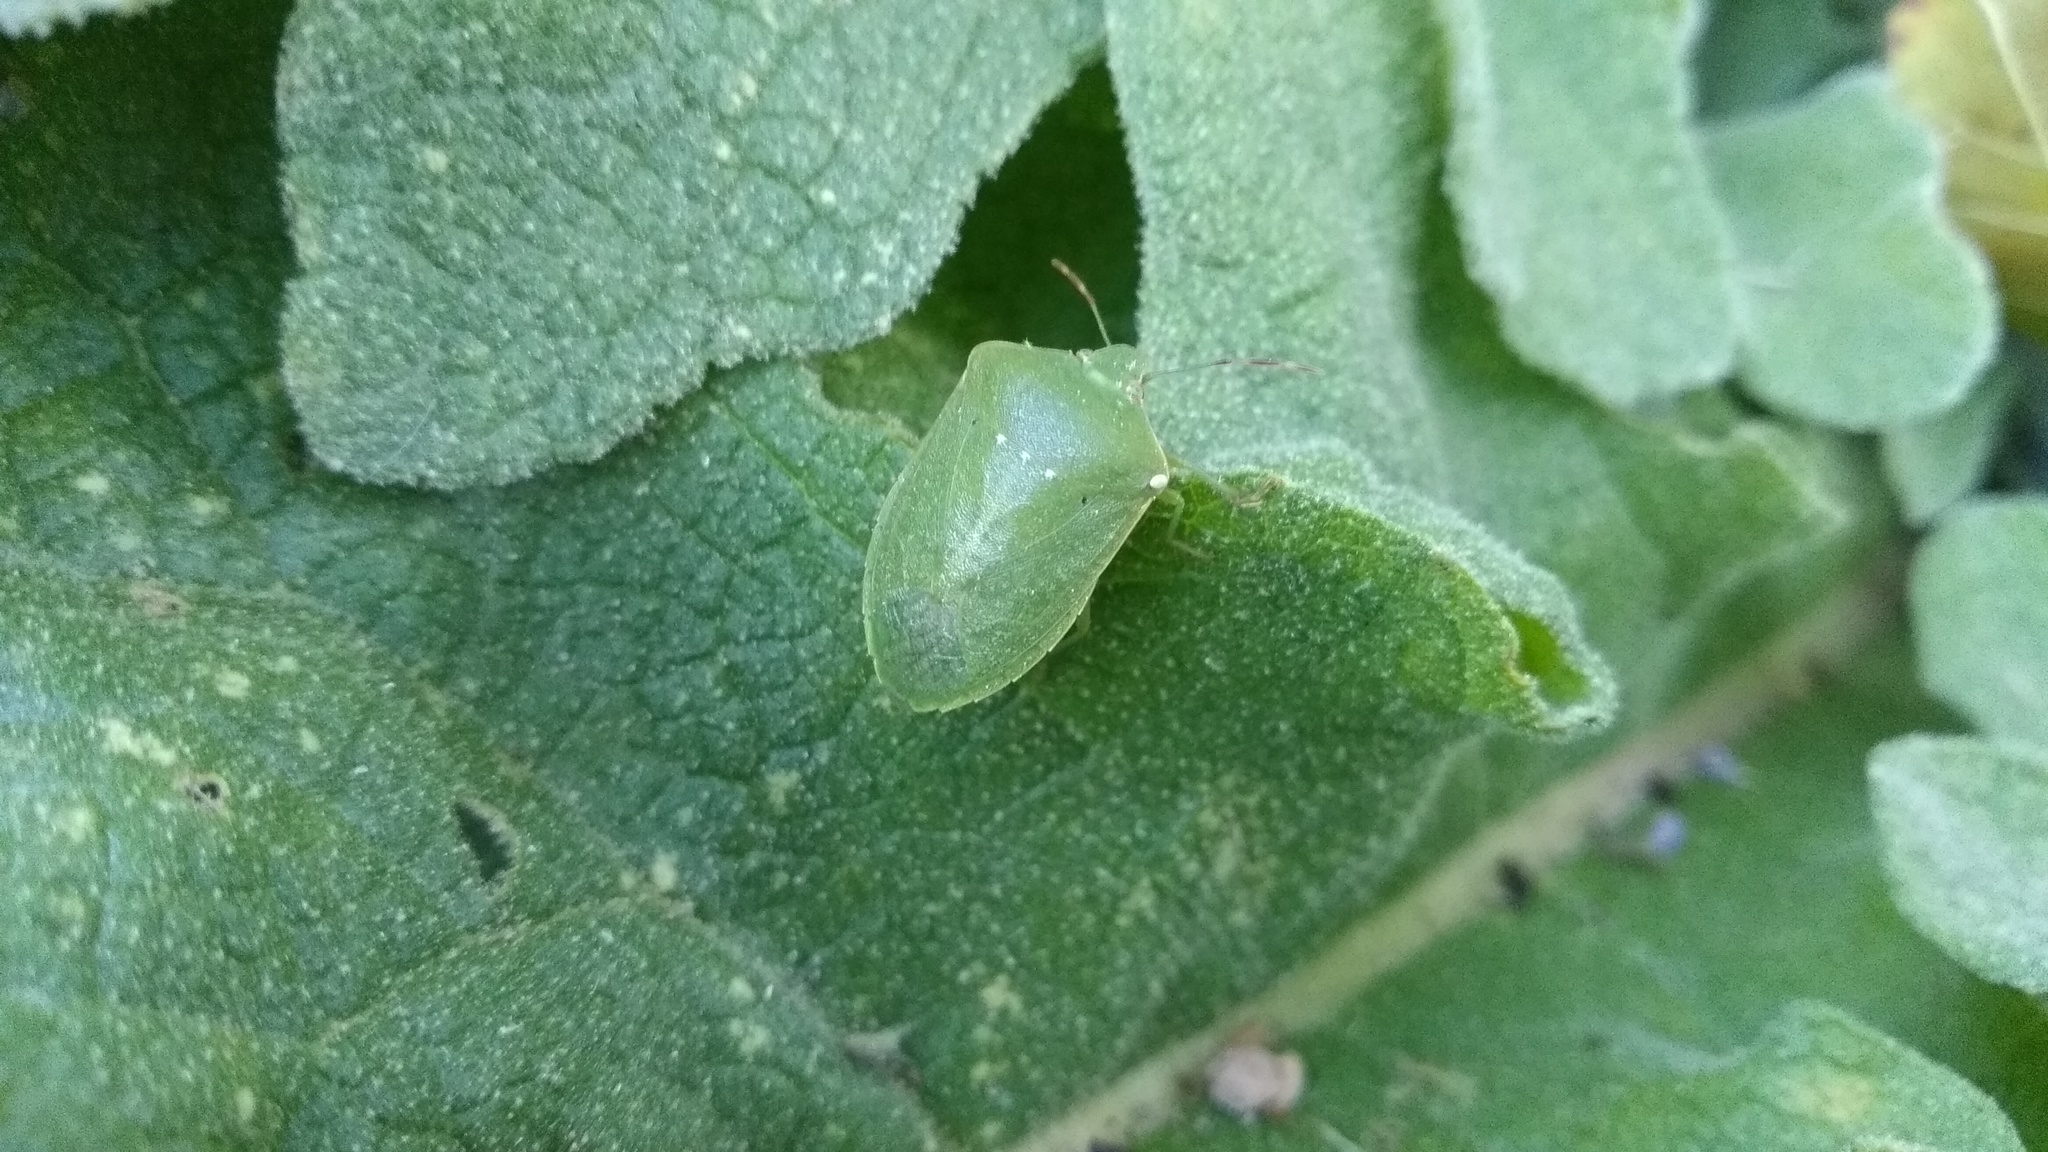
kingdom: Animalia
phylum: Arthropoda
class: Insecta
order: Hemiptera
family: Pentatomidae
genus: Nezara
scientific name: Nezara viridula
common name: Southern green stink bug
